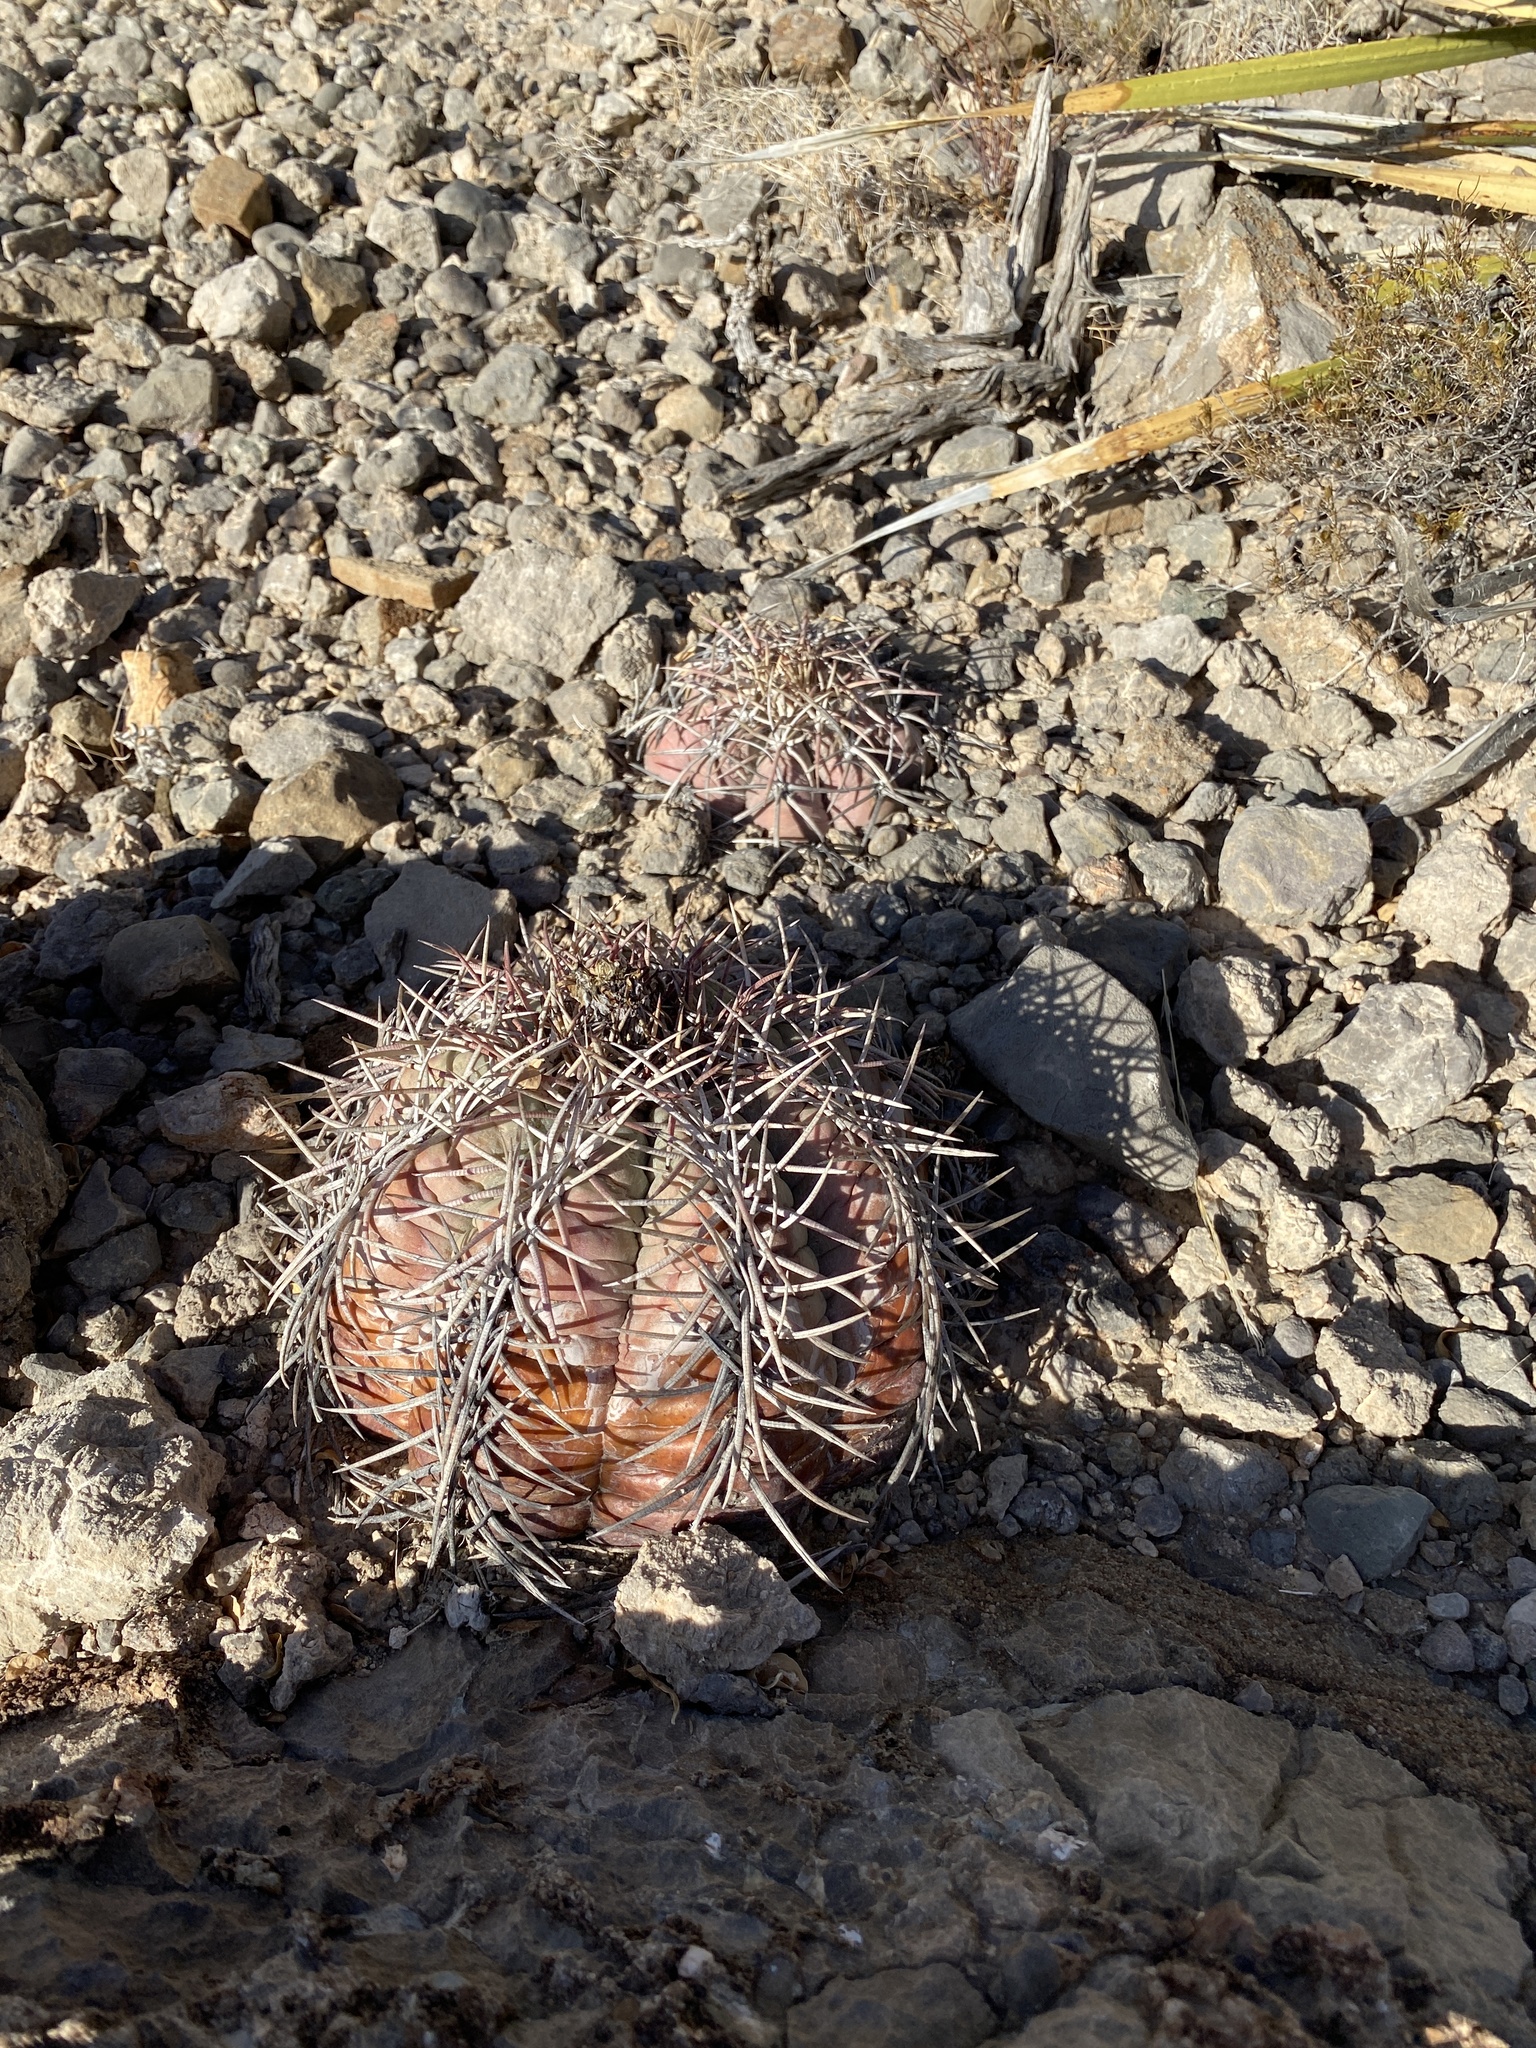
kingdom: Plantae
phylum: Tracheophyta
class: Magnoliopsida
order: Caryophyllales
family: Cactaceae
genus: Echinocactus
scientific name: Echinocactus horizonthalonius
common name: Devilshead
